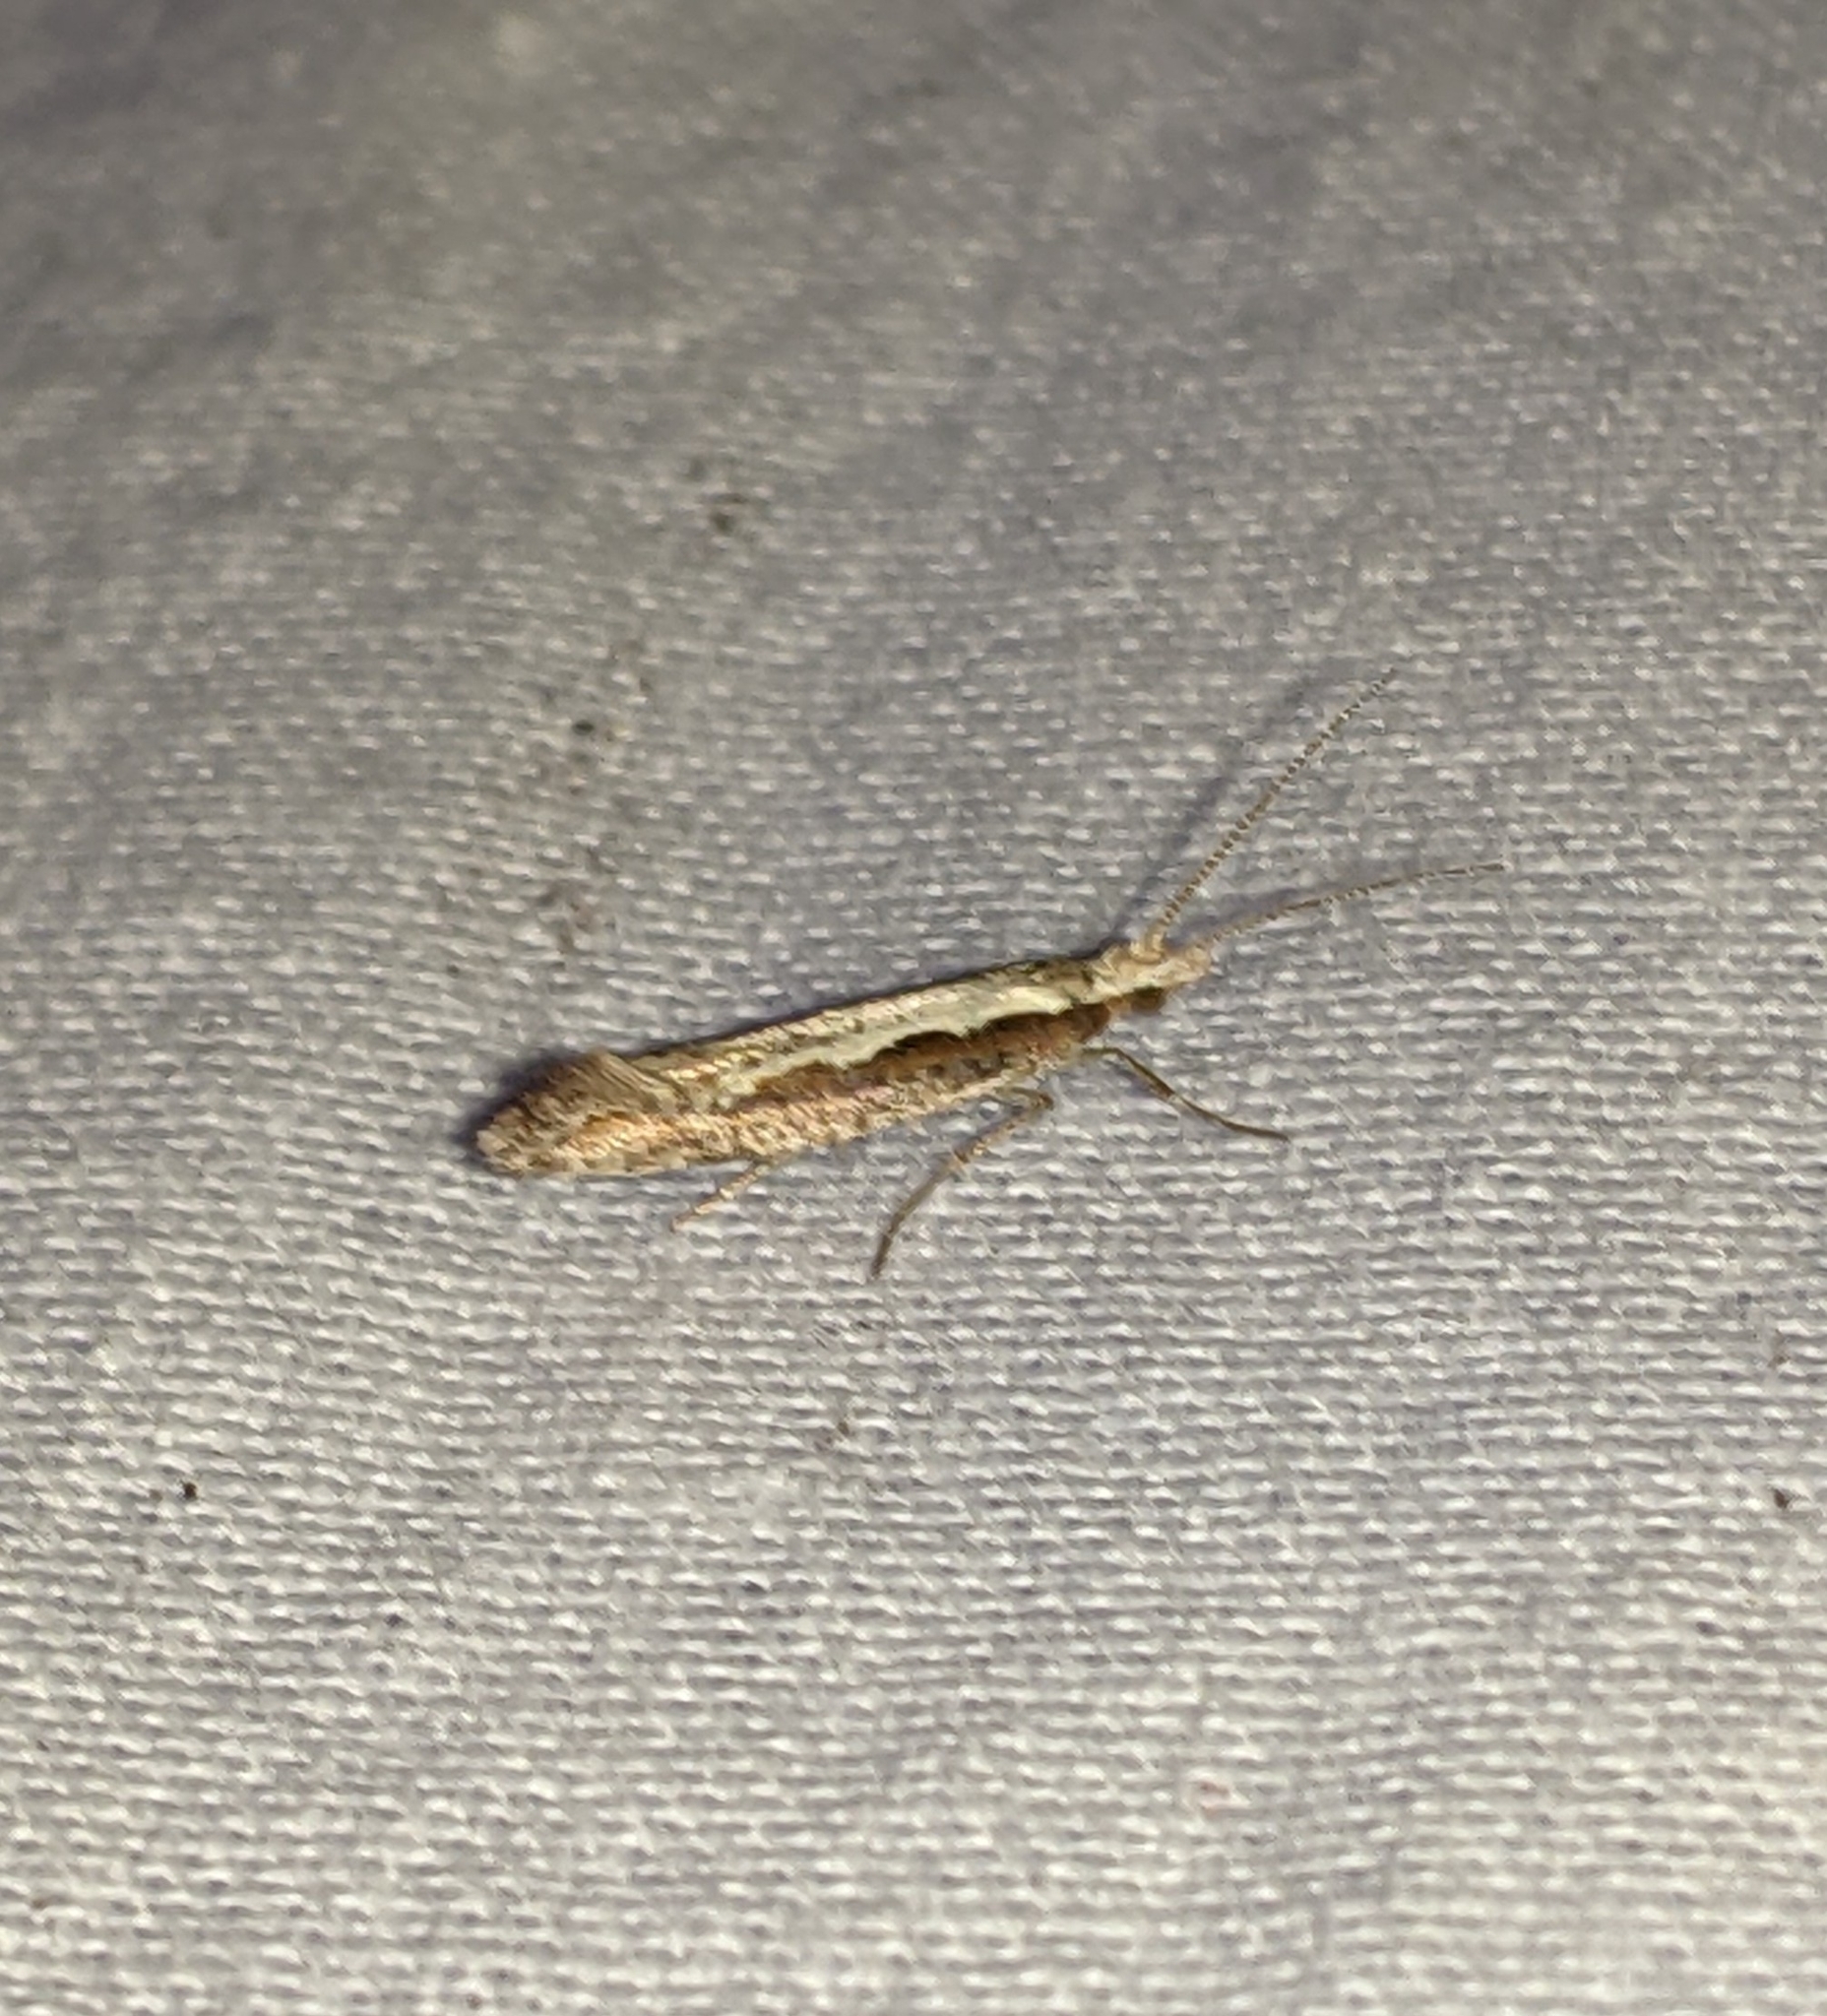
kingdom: Animalia
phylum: Arthropoda
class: Insecta
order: Lepidoptera
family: Plutellidae
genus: Plutella
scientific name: Plutella xylostella
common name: Diamond-back moth
